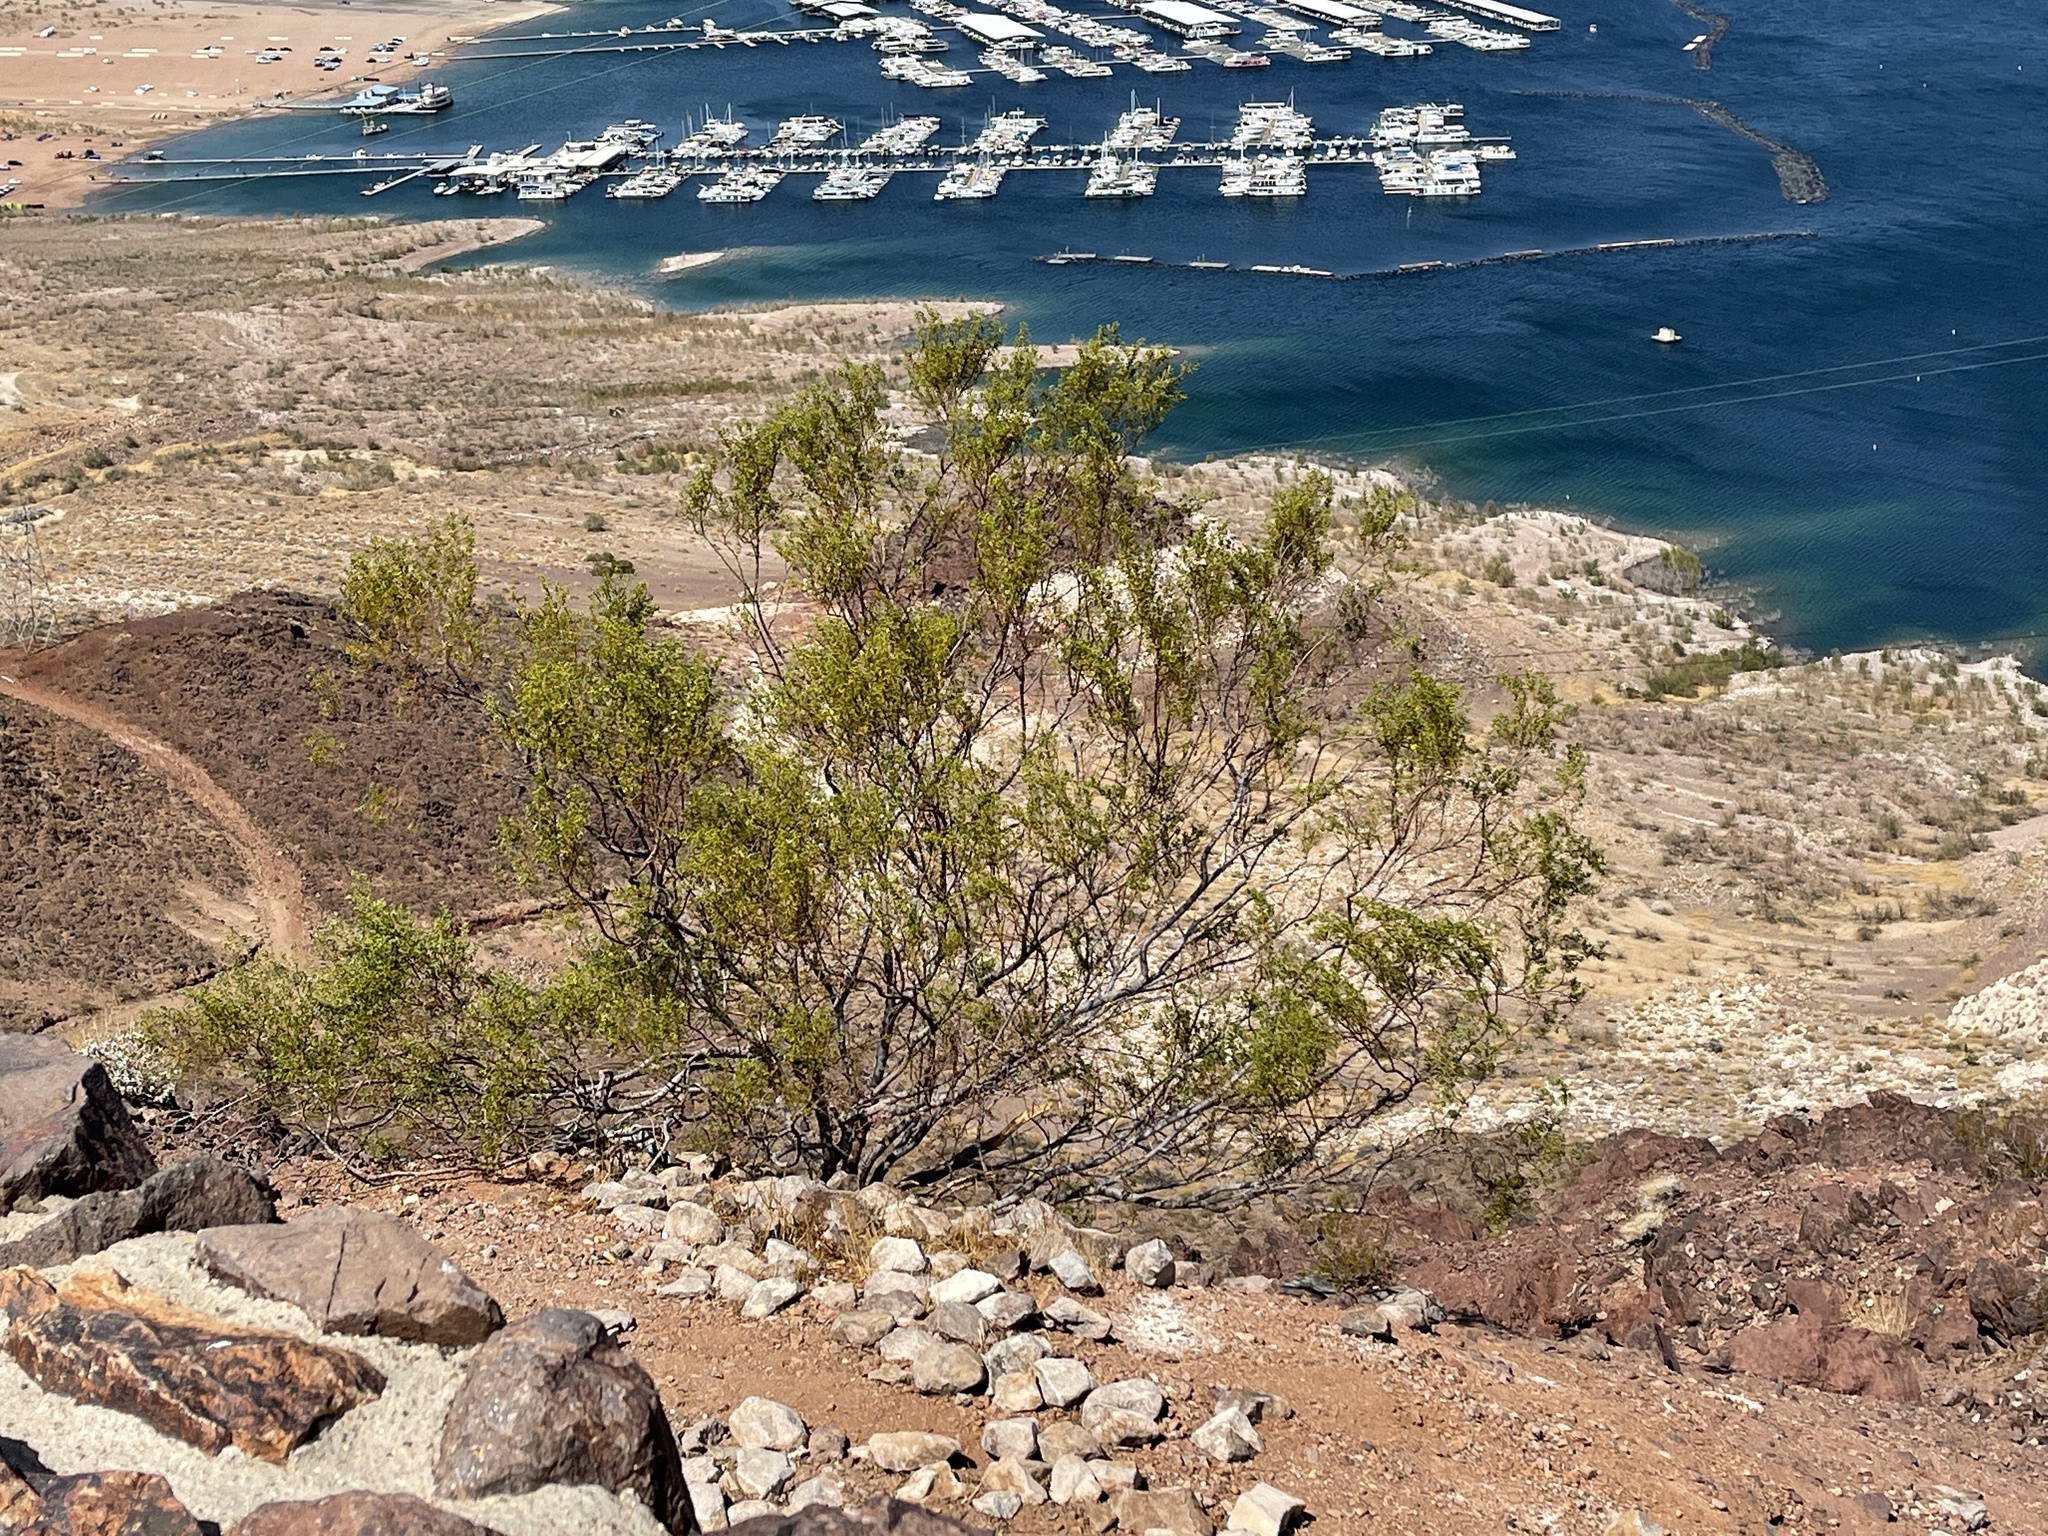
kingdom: Plantae
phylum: Tracheophyta
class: Magnoliopsida
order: Zygophyllales
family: Zygophyllaceae
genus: Larrea
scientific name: Larrea tridentata
